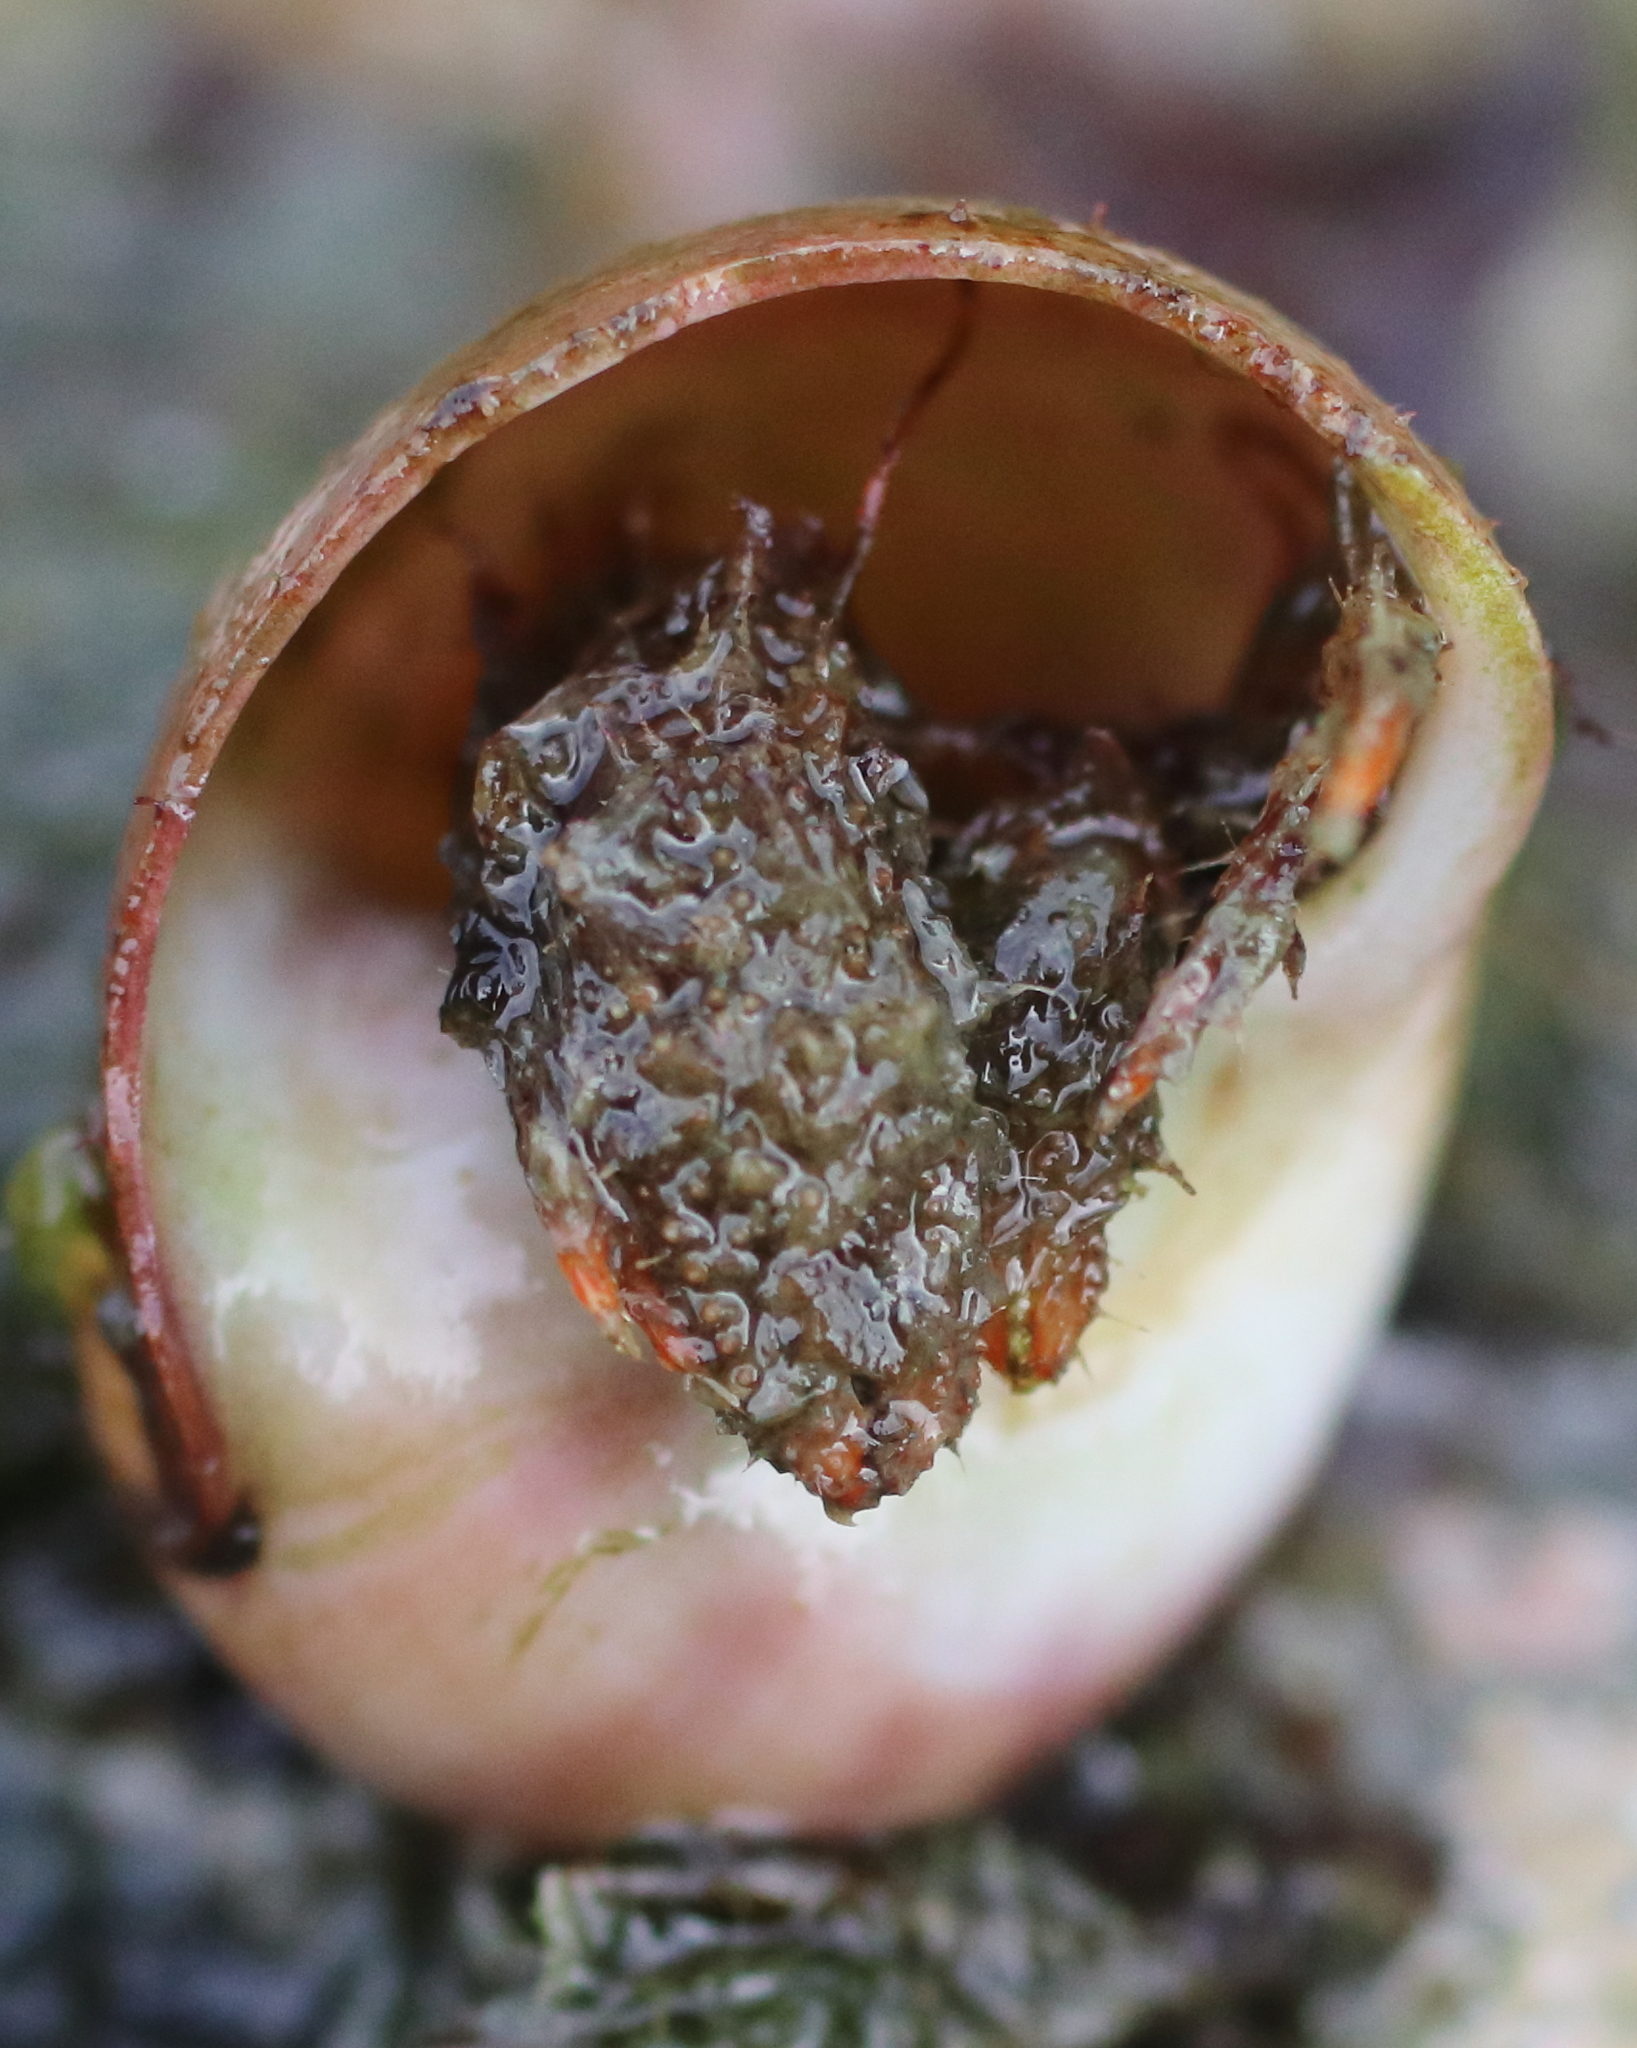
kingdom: Animalia
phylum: Arthropoda
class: Malacostraca
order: Decapoda
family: Paguridae
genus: Pagurus
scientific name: Pagurus caurinus
